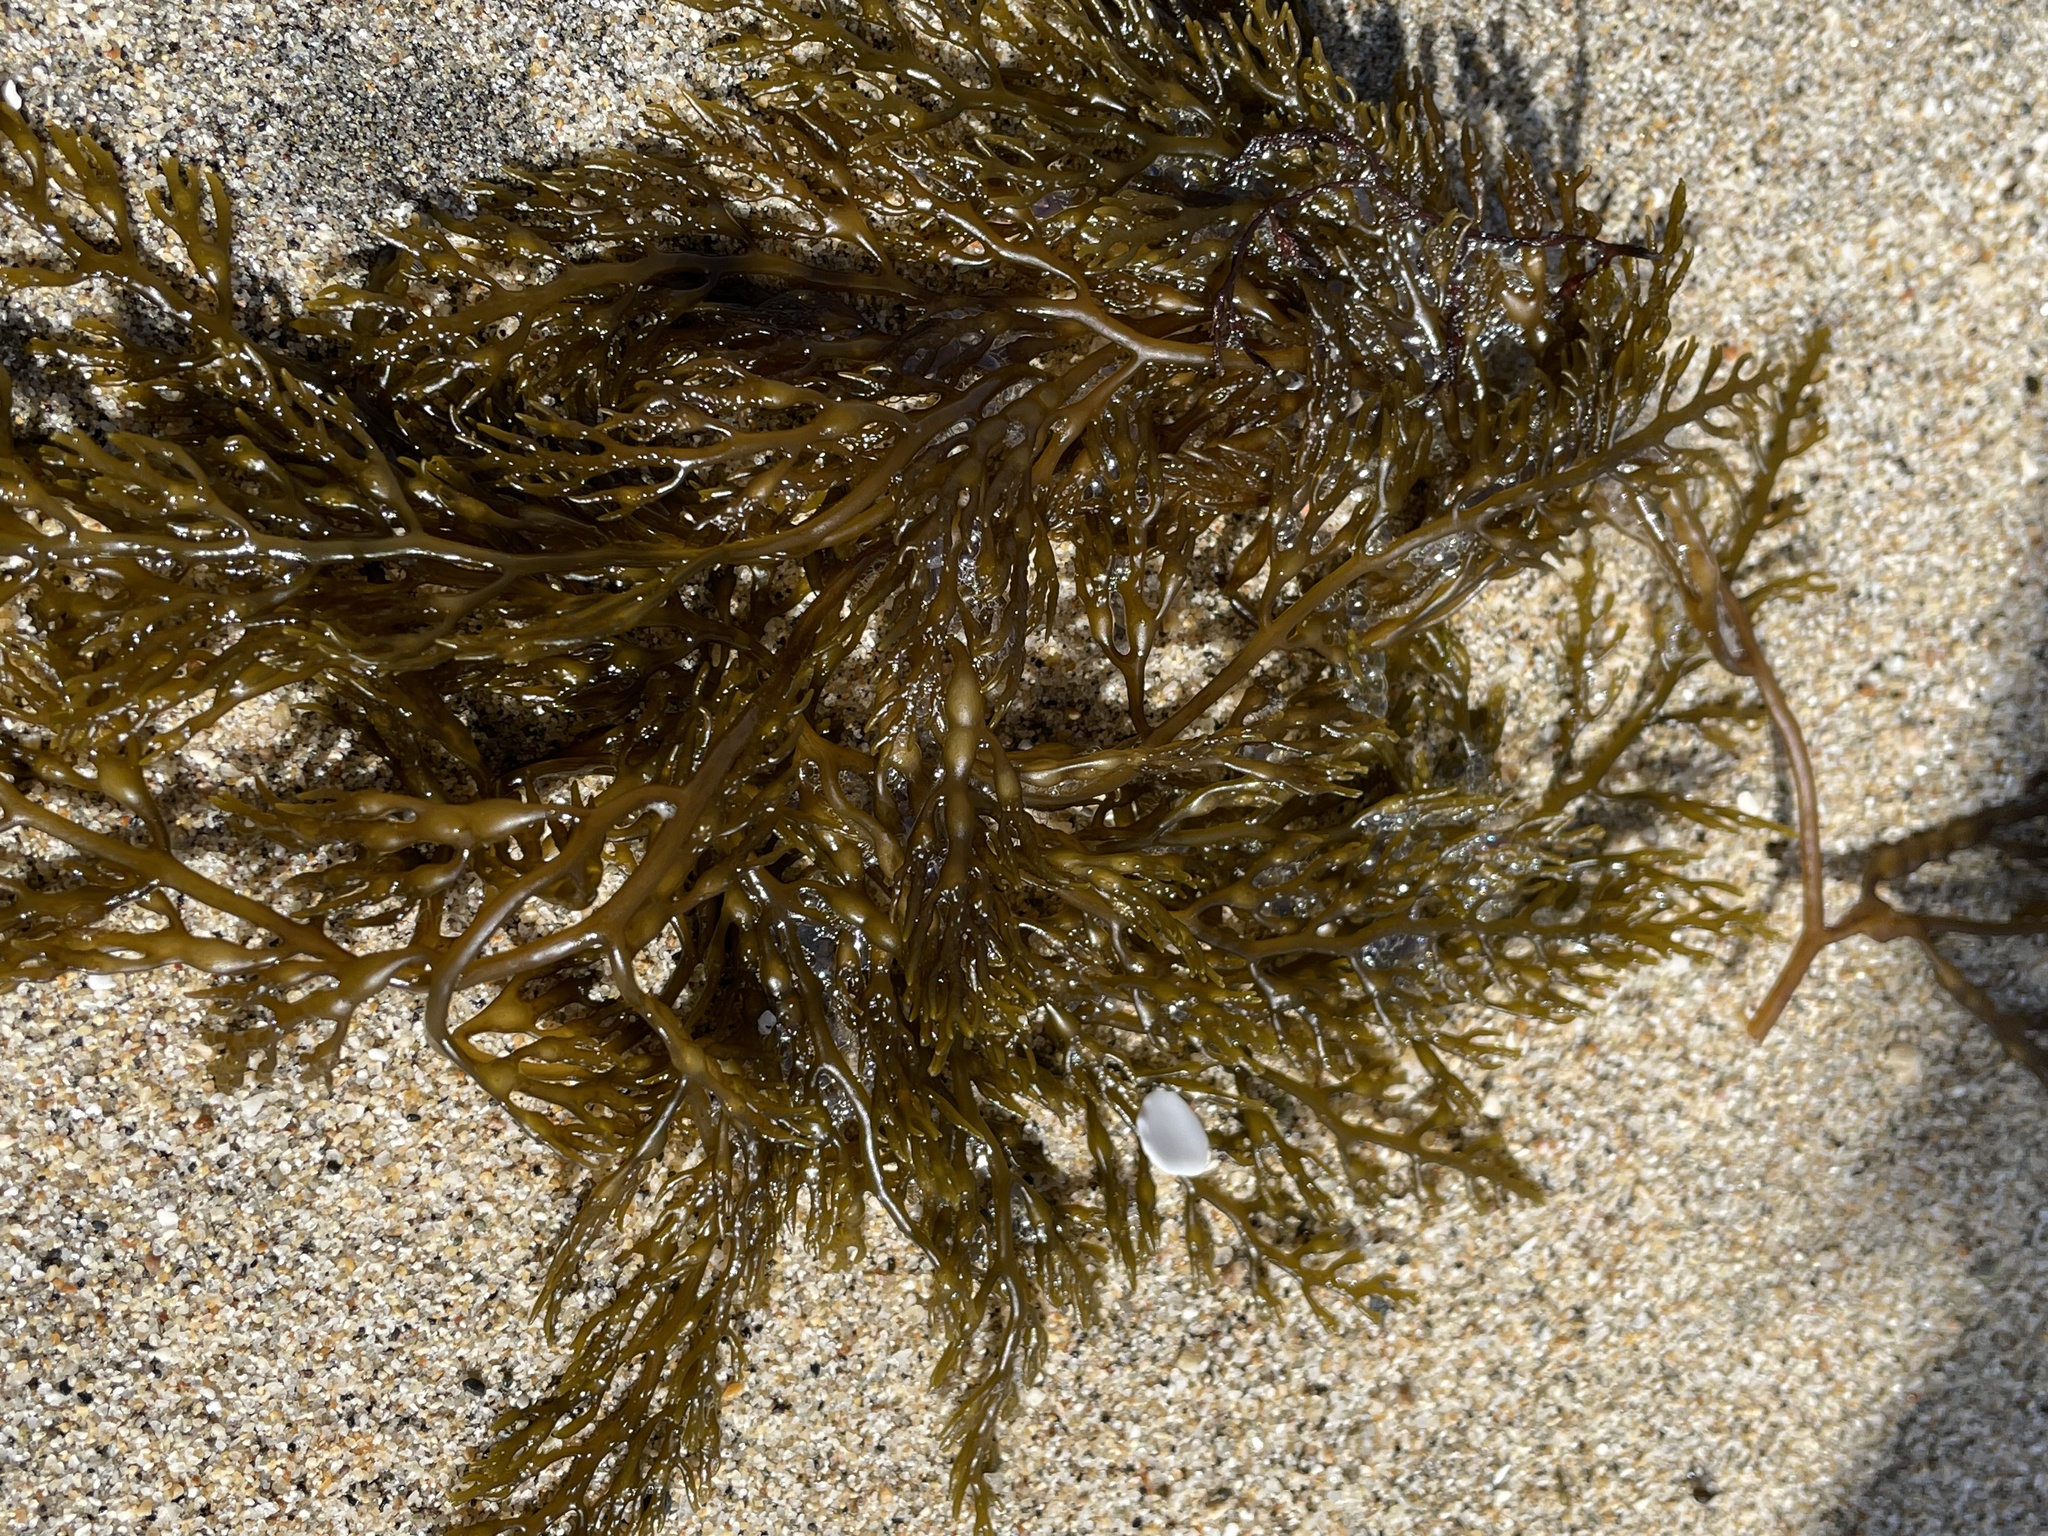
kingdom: Chromista
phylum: Ochrophyta
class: Phaeophyceae
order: Fucales
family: Sargassaceae
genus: Stephanocystis
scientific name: Stephanocystis
